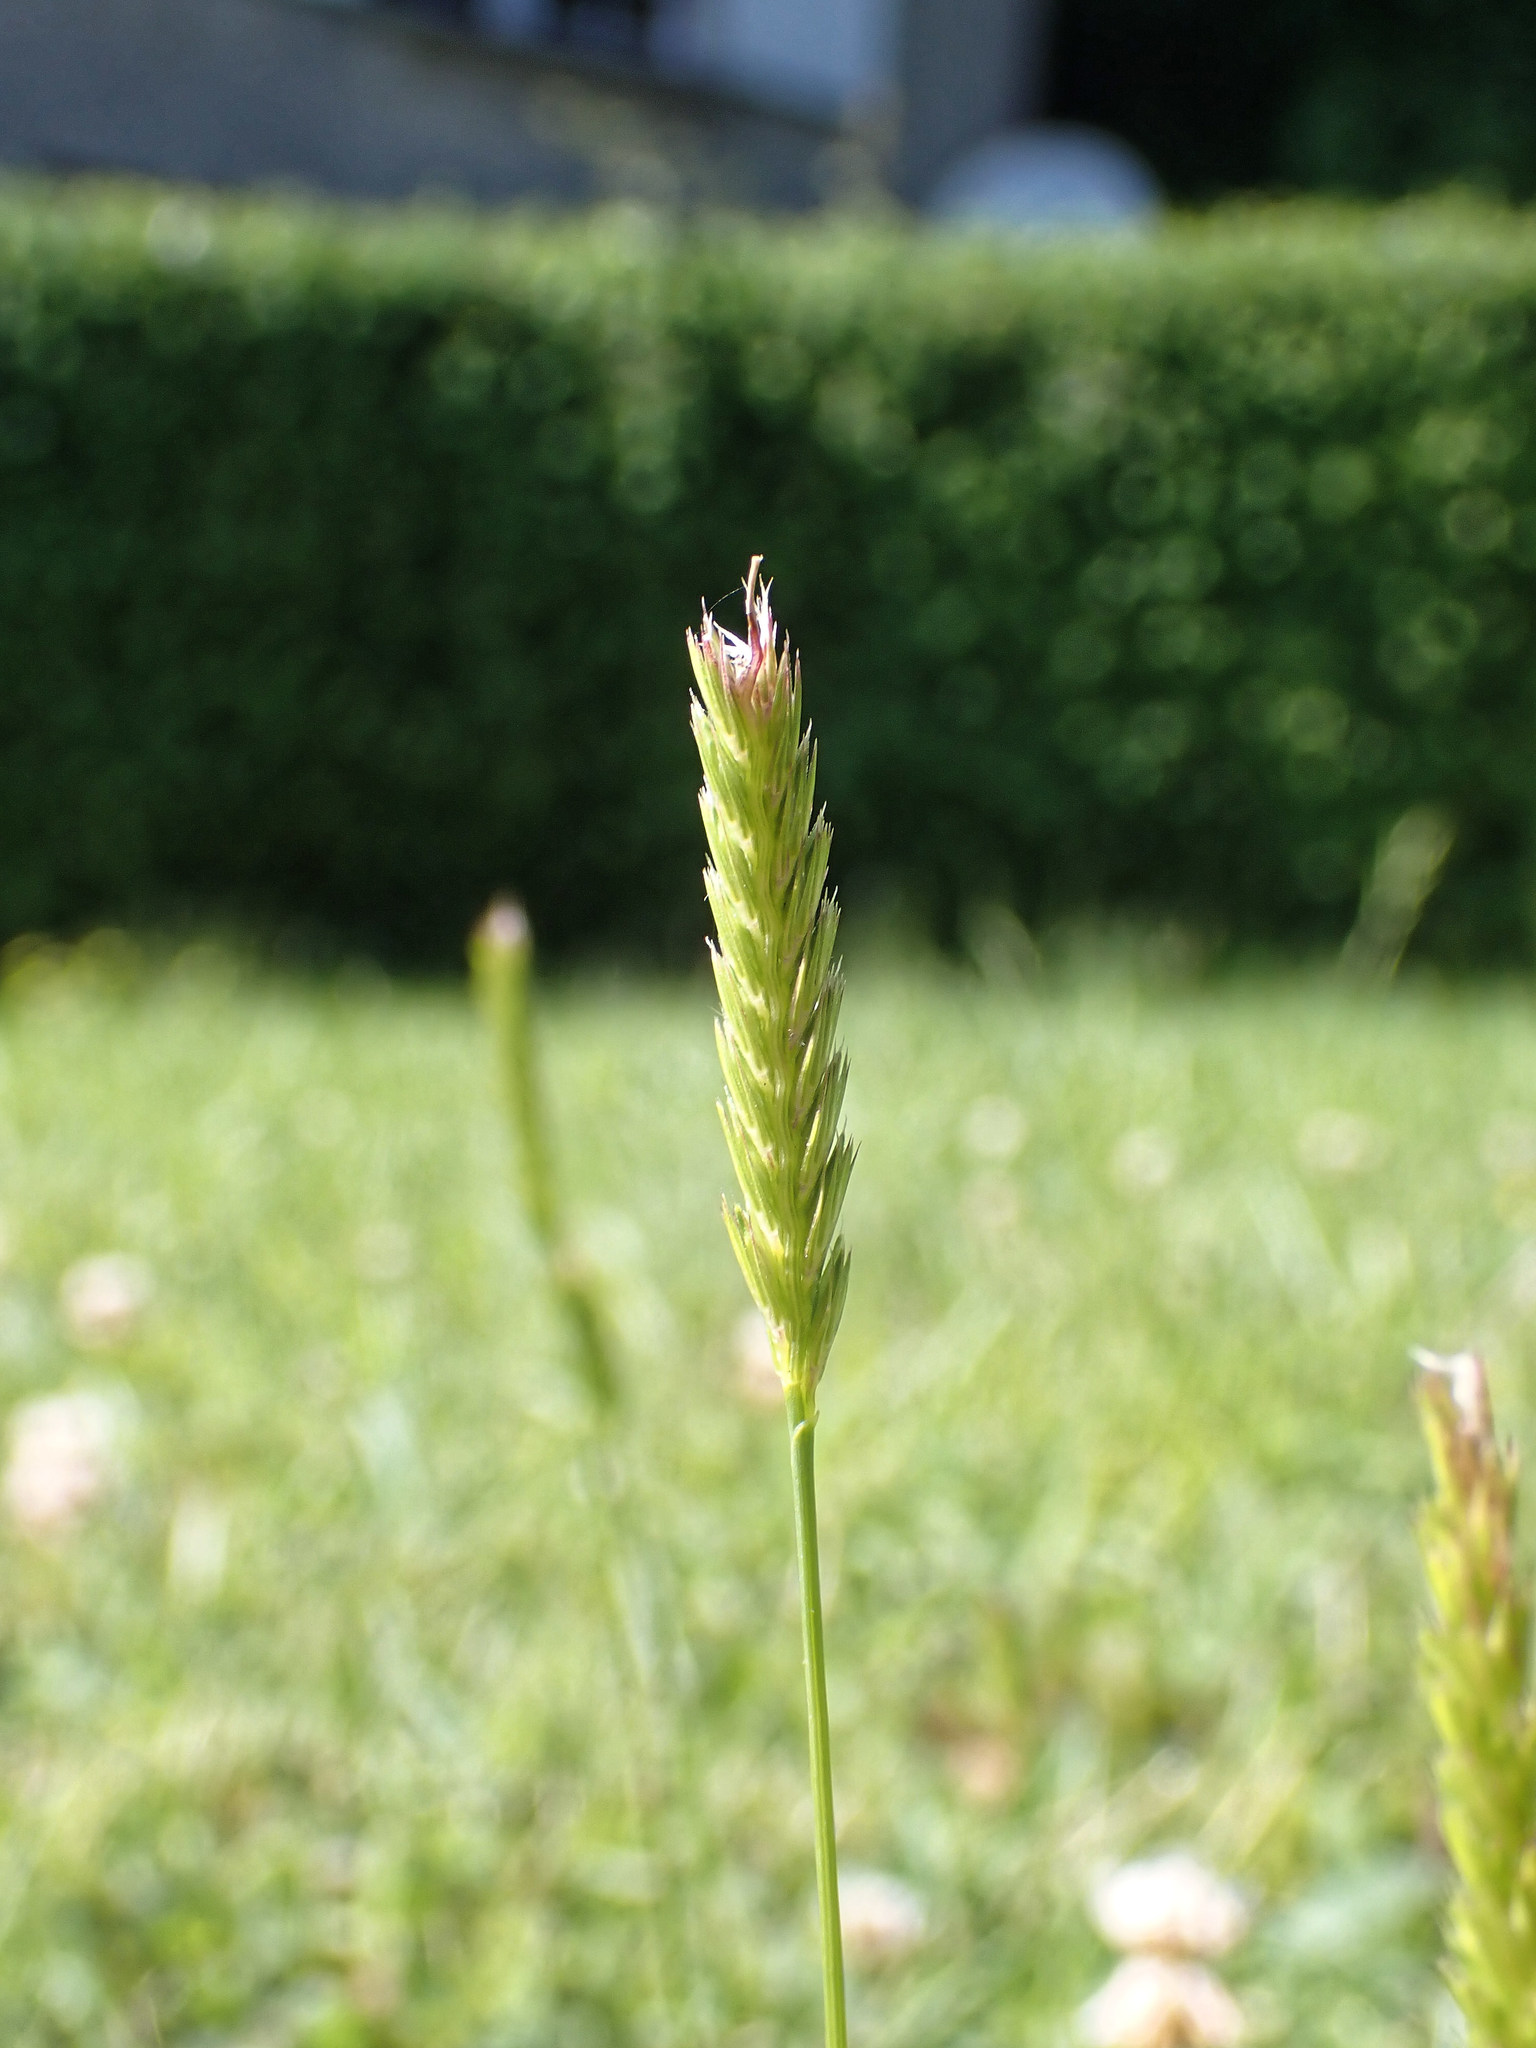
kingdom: Plantae
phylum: Tracheophyta
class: Liliopsida
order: Poales
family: Poaceae
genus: Cynosurus
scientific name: Cynosurus cristatus
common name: Crested dog's-tail
